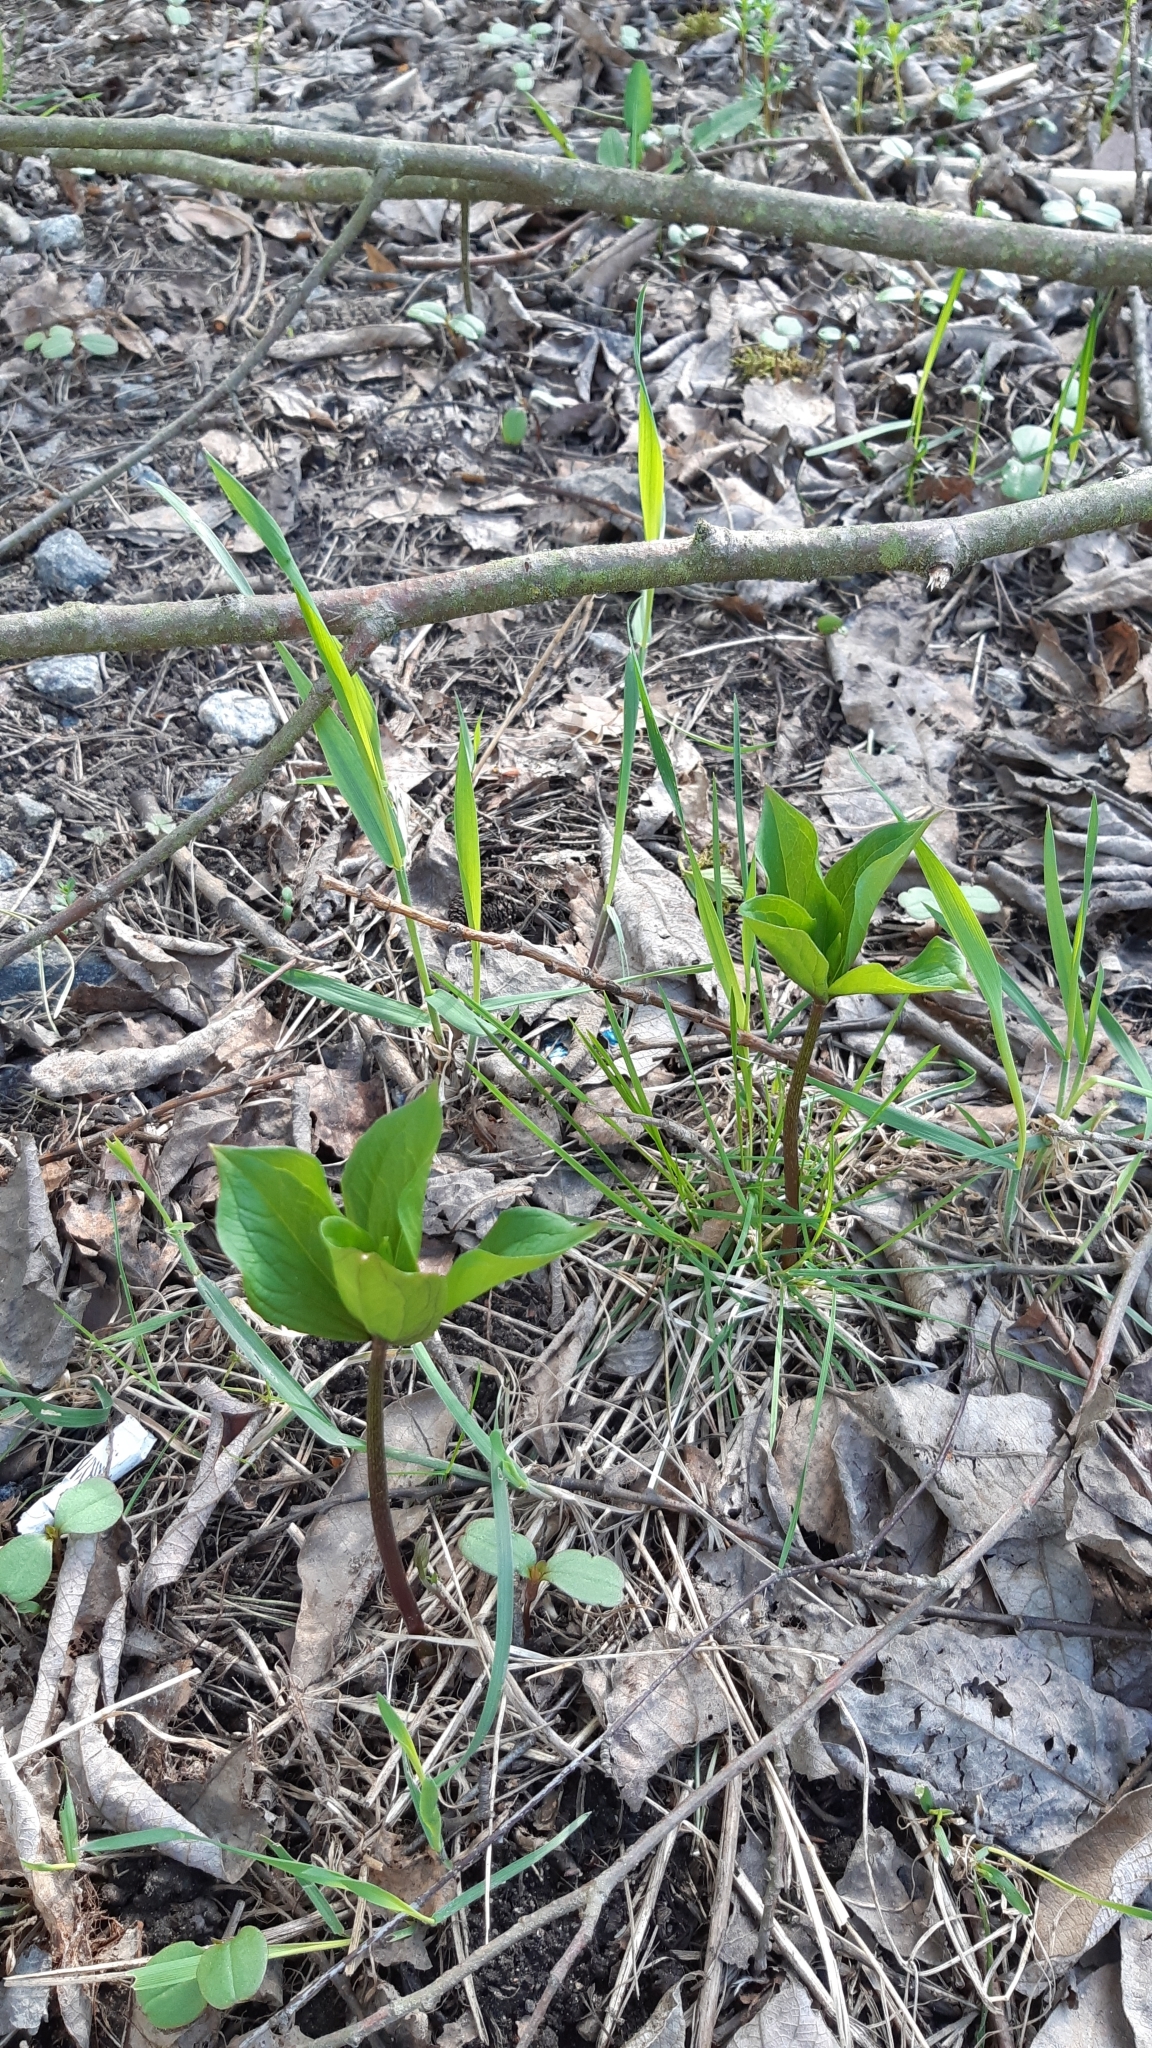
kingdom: Plantae
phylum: Tracheophyta
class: Liliopsida
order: Liliales
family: Melanthiaceae
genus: Paris
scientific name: Paris quadrifolia
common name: Herb-paris
